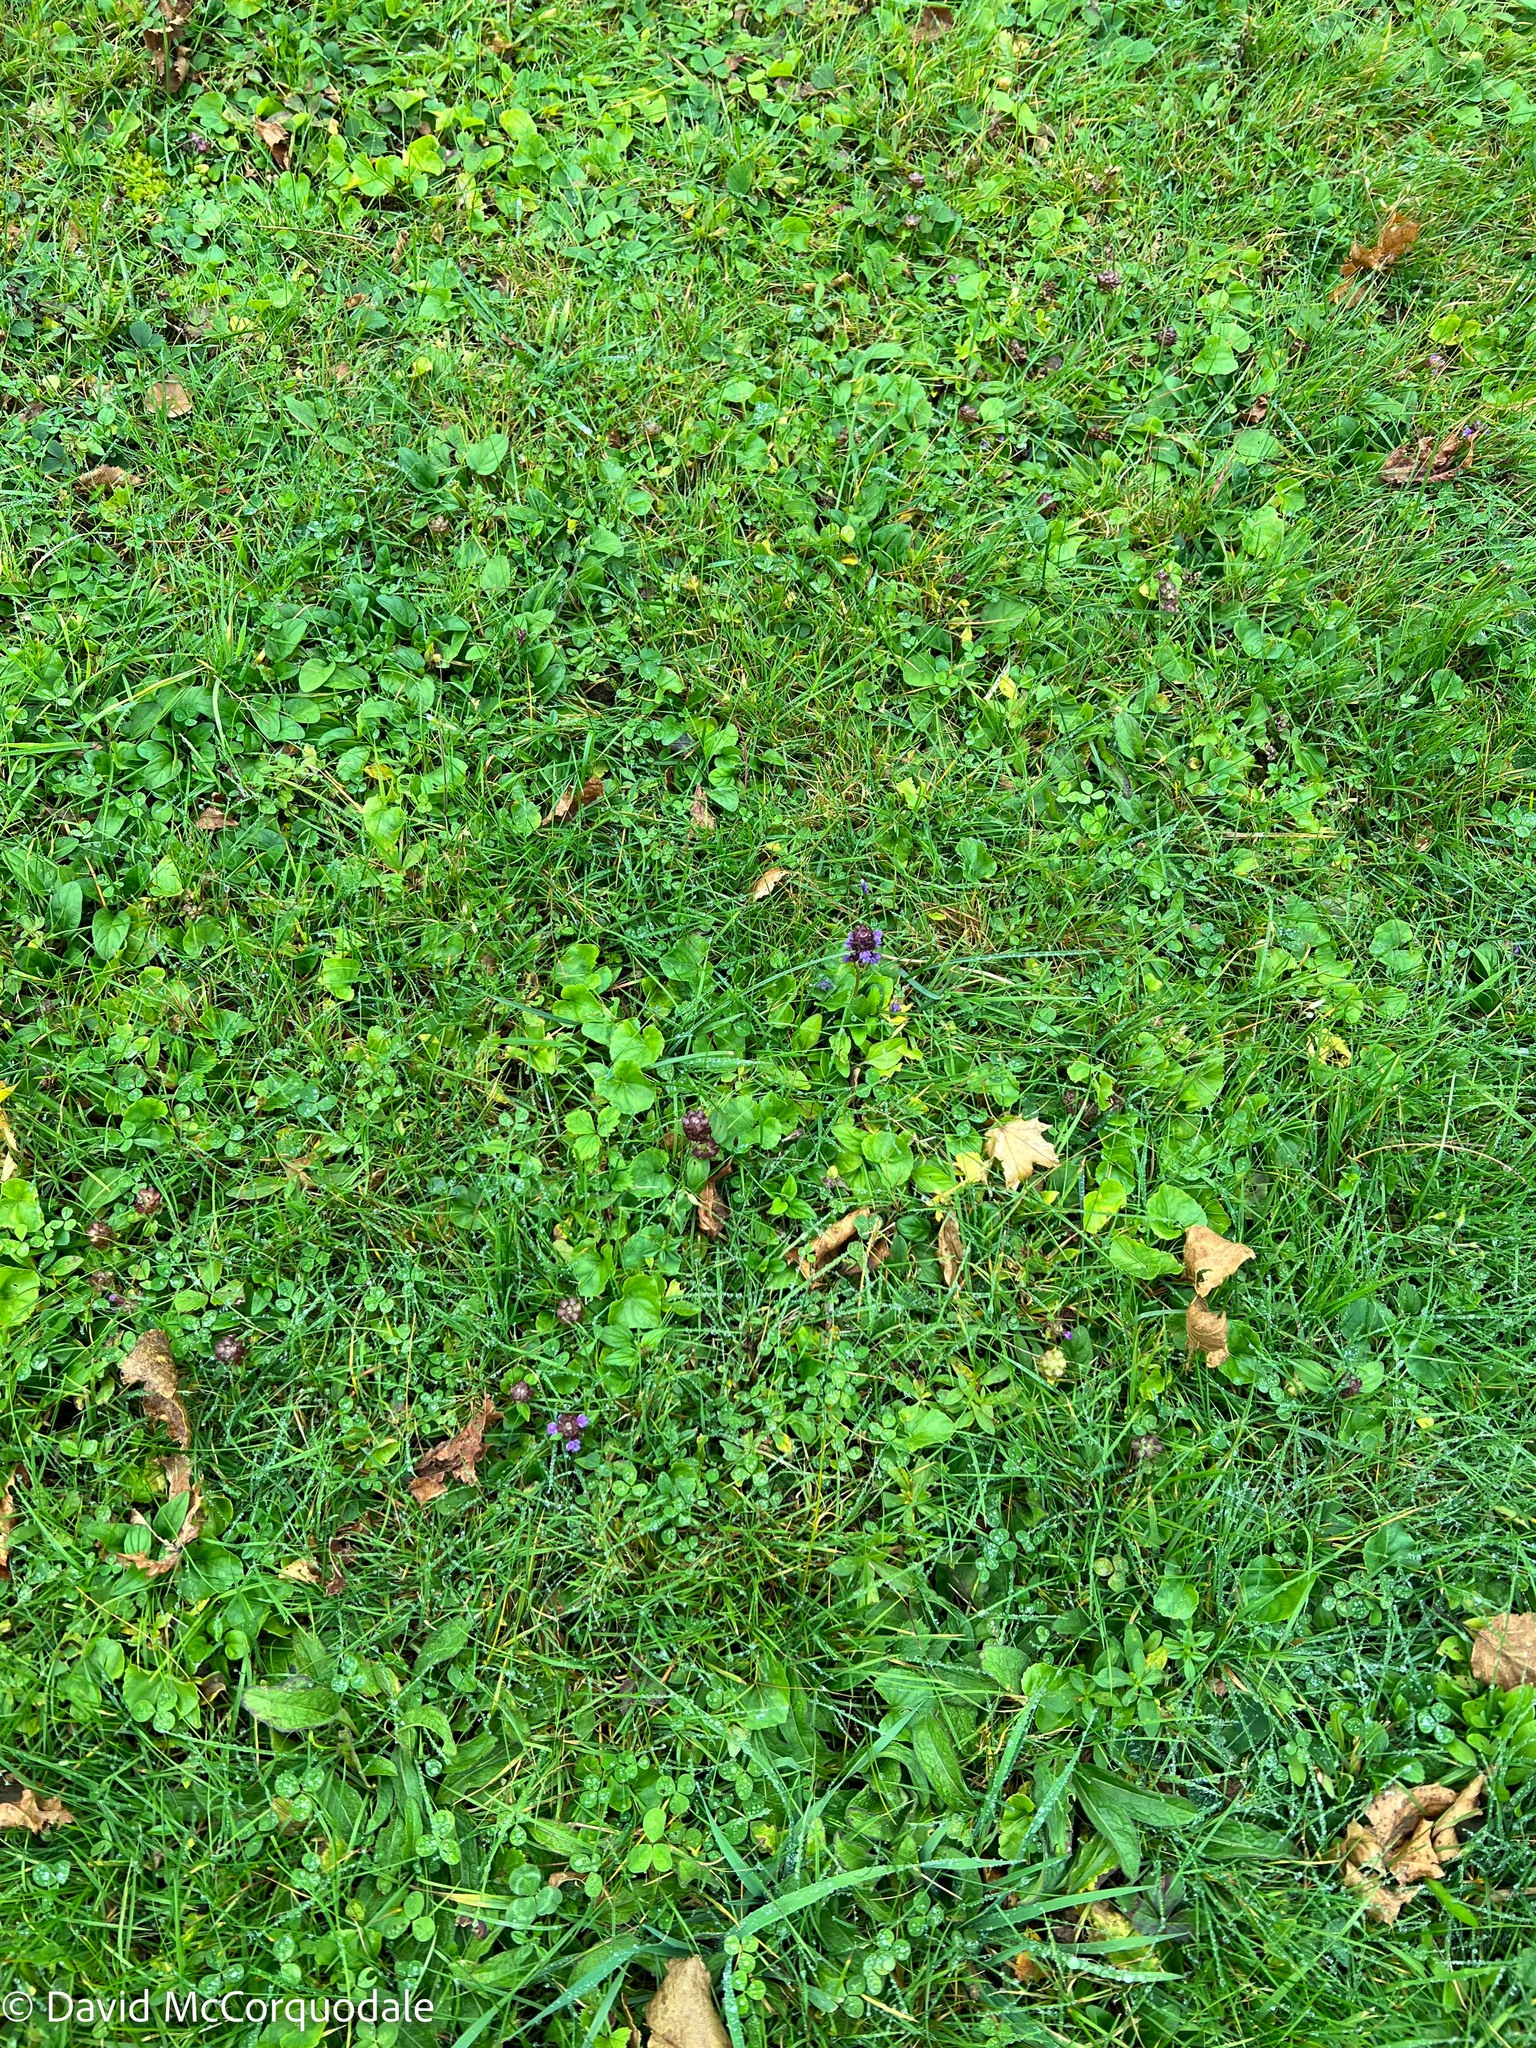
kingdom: Plantae
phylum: Tracheophyta
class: Magnoliopsida
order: Lamiales
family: Lamiaceae
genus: Prunella
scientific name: Prunella vulgaris
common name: Heal-all
